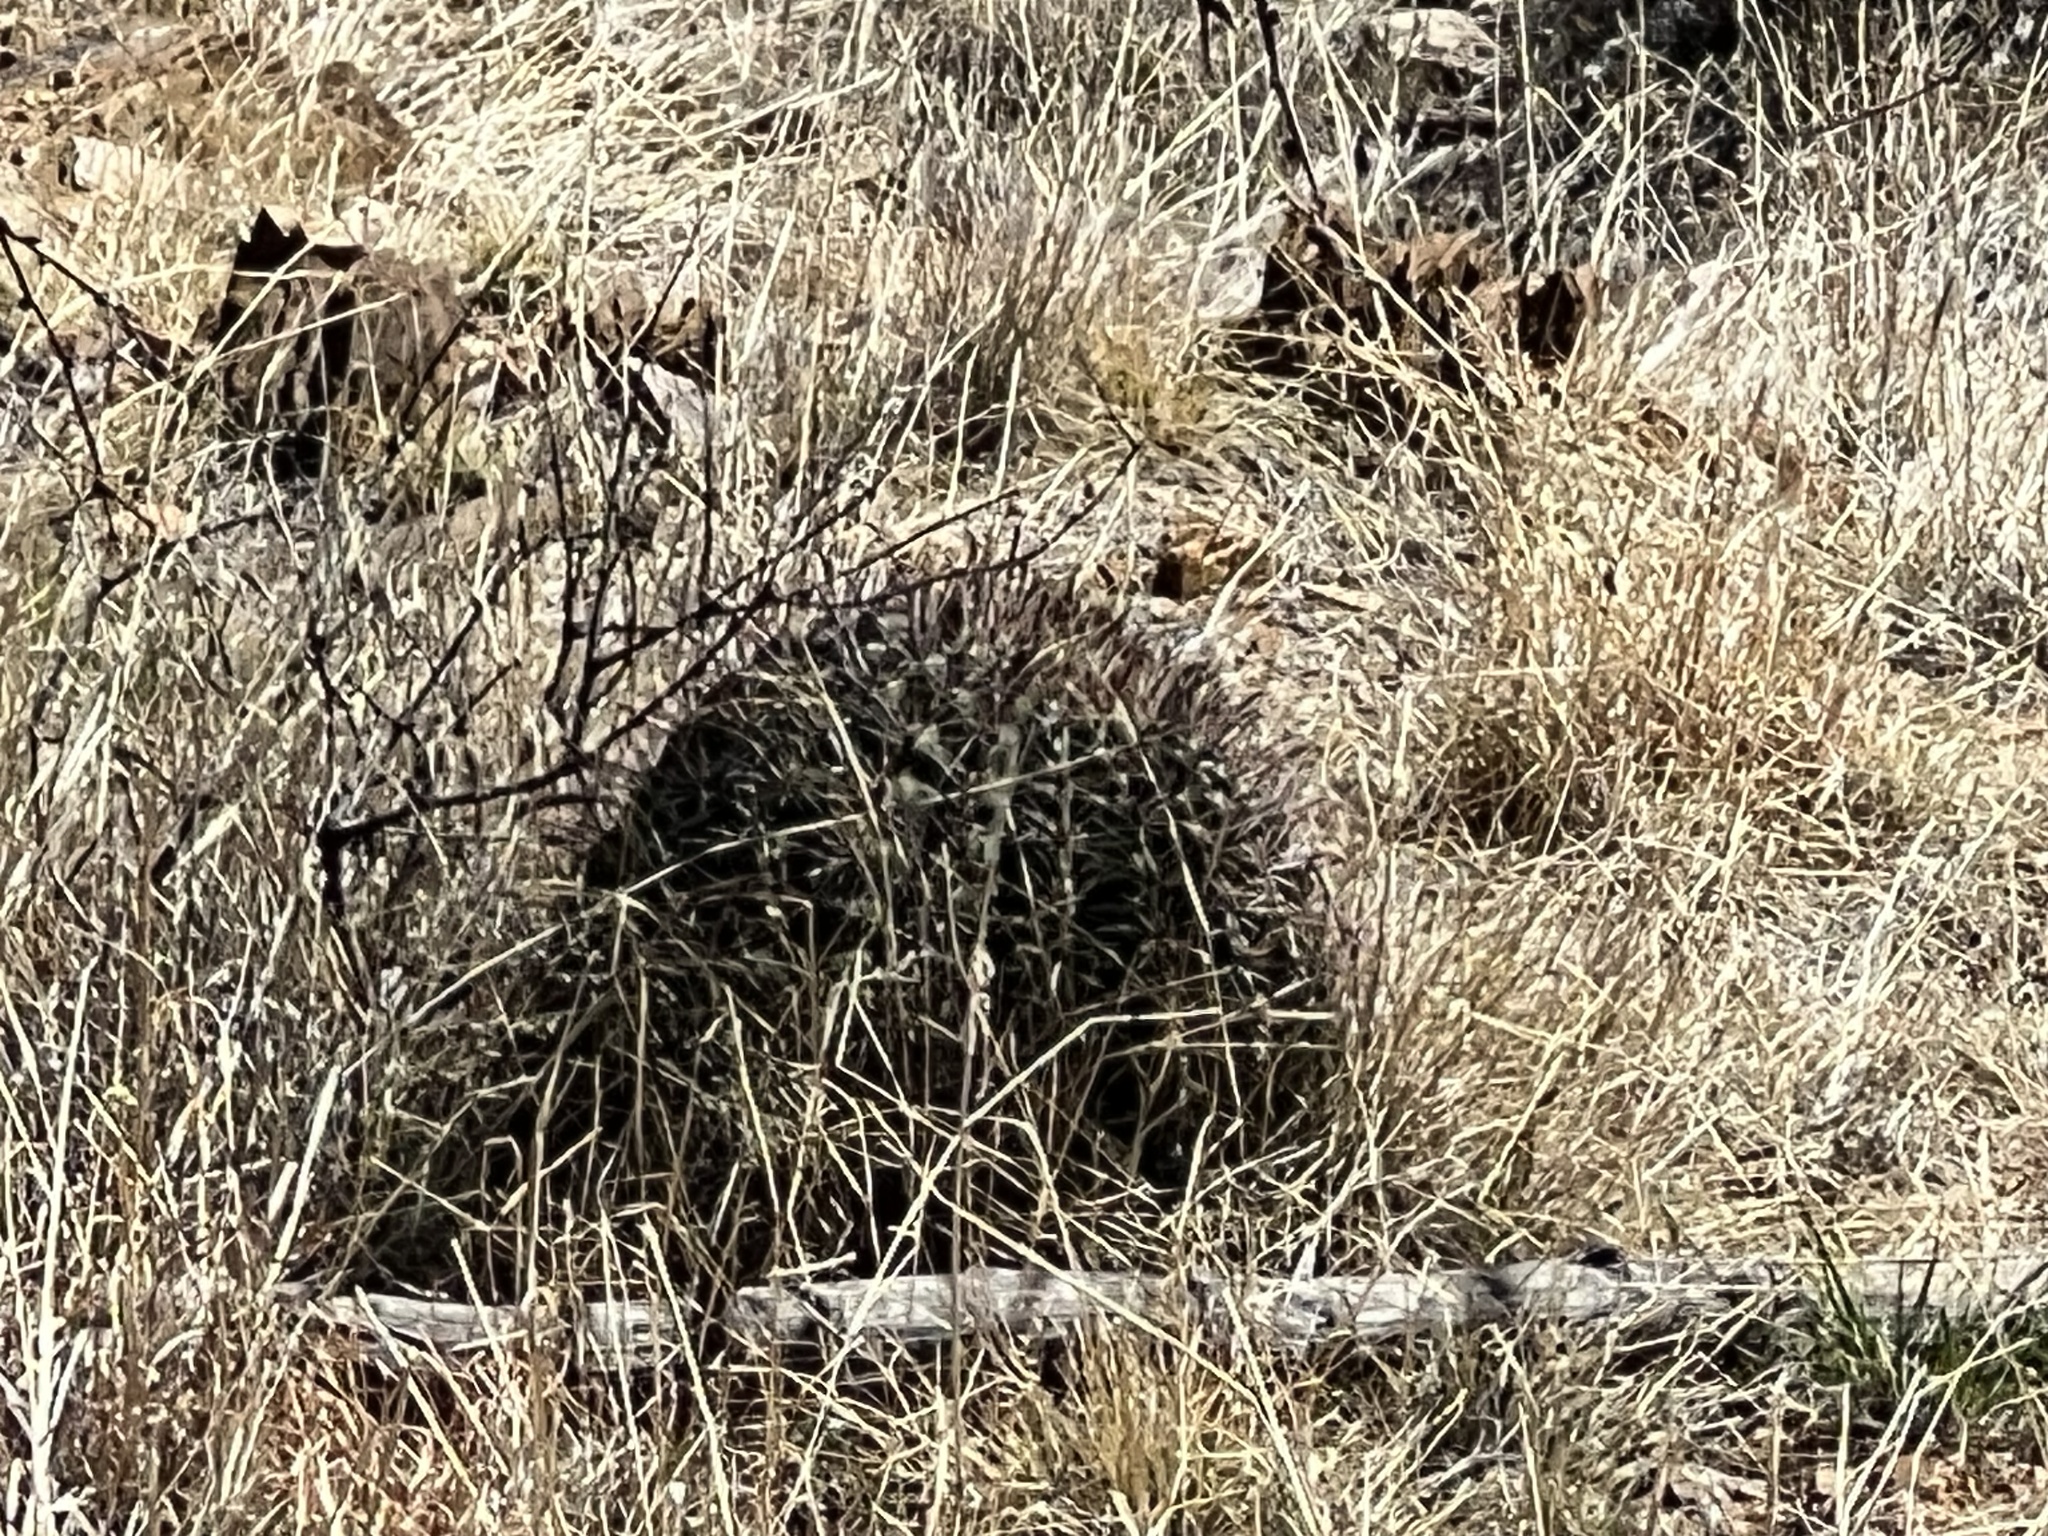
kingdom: Plantae
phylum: Tracheophyta
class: Magnoliopsida
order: Caryophyllales
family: Cactaceae
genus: Ferocactus
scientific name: Ferocactus wislizeni
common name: Candy barrel cactus
